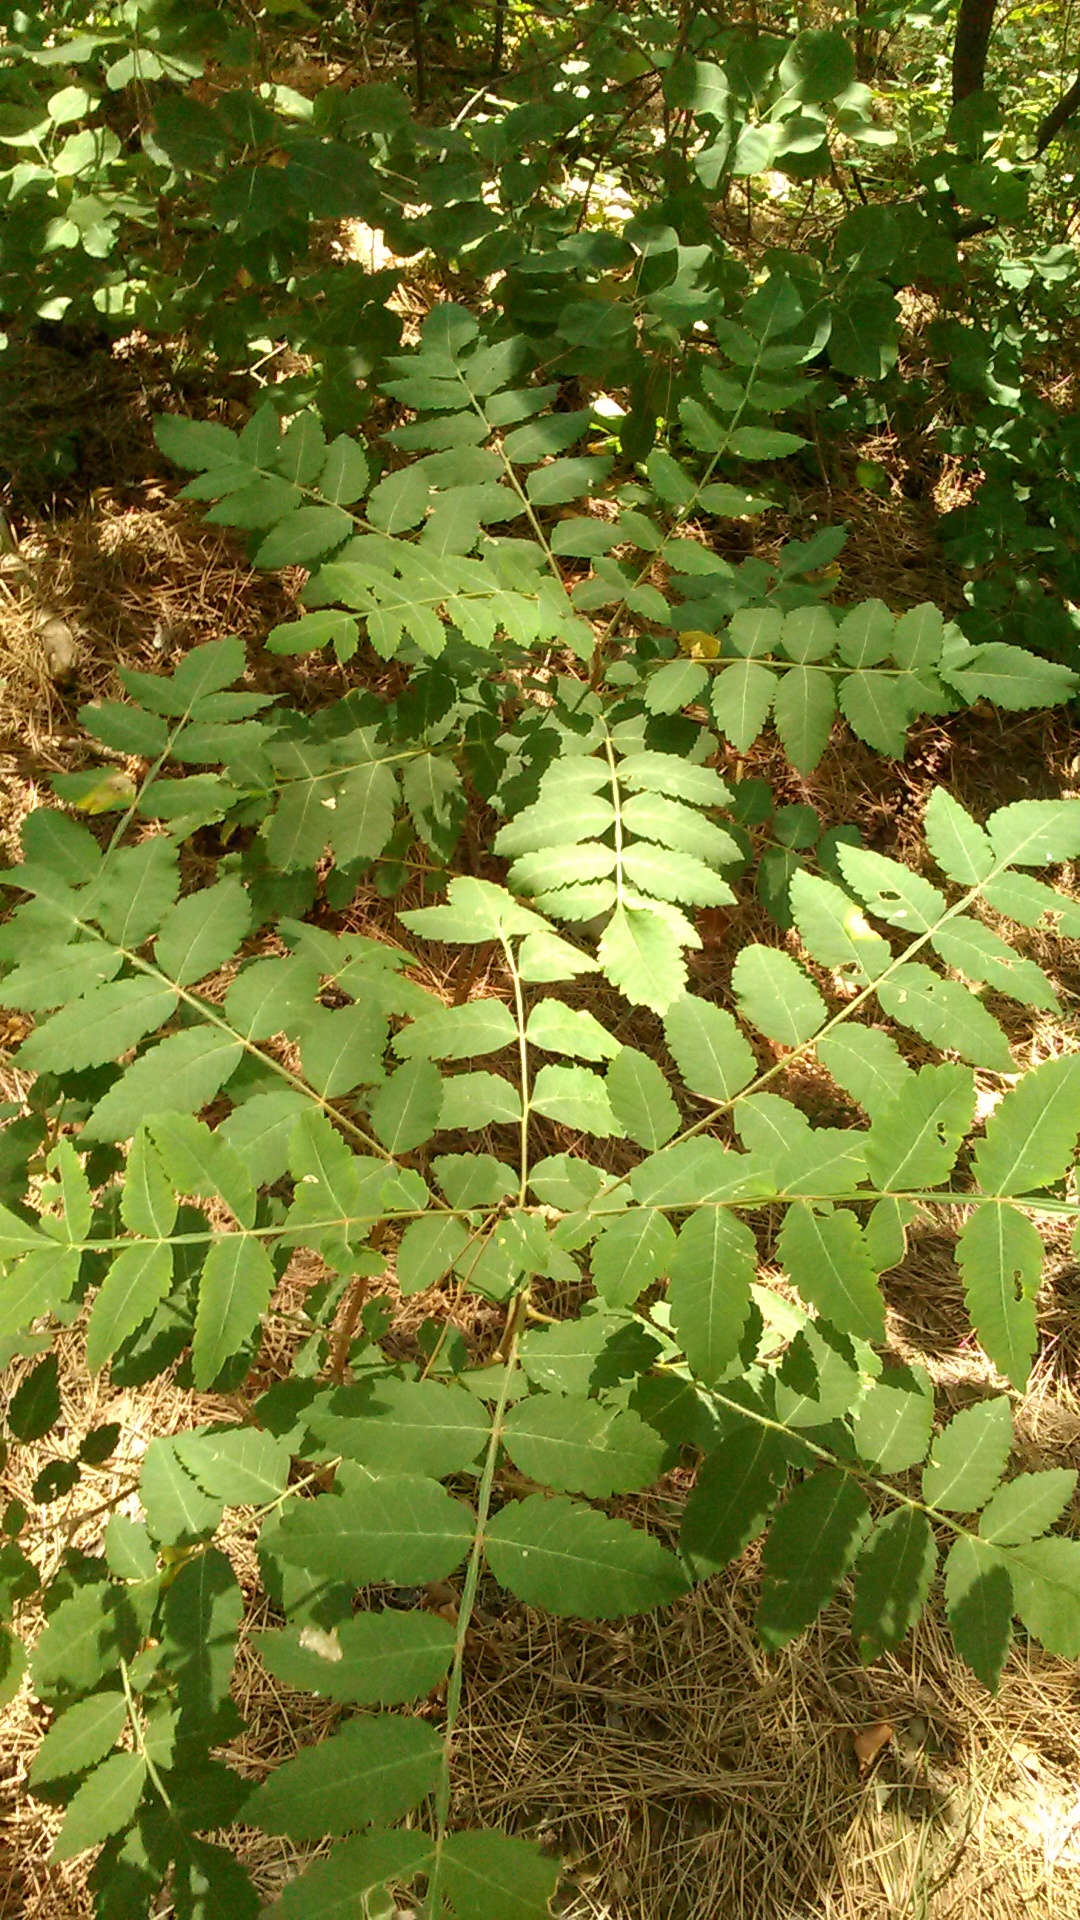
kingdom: Plantae
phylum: Tracheophyta
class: Magnoliopsida
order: Sapindales
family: Anacardiaceae
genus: Rhus
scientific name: Rhus coriaria
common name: Tanner's sumach
